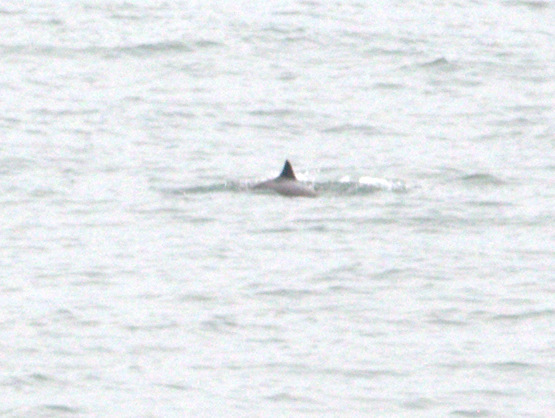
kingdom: Animalia
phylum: Chordata
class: Mammalia
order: Cetacea
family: Phocoenidae
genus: Phocoena
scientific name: Phocoena phocoena
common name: Harbor porpoise
